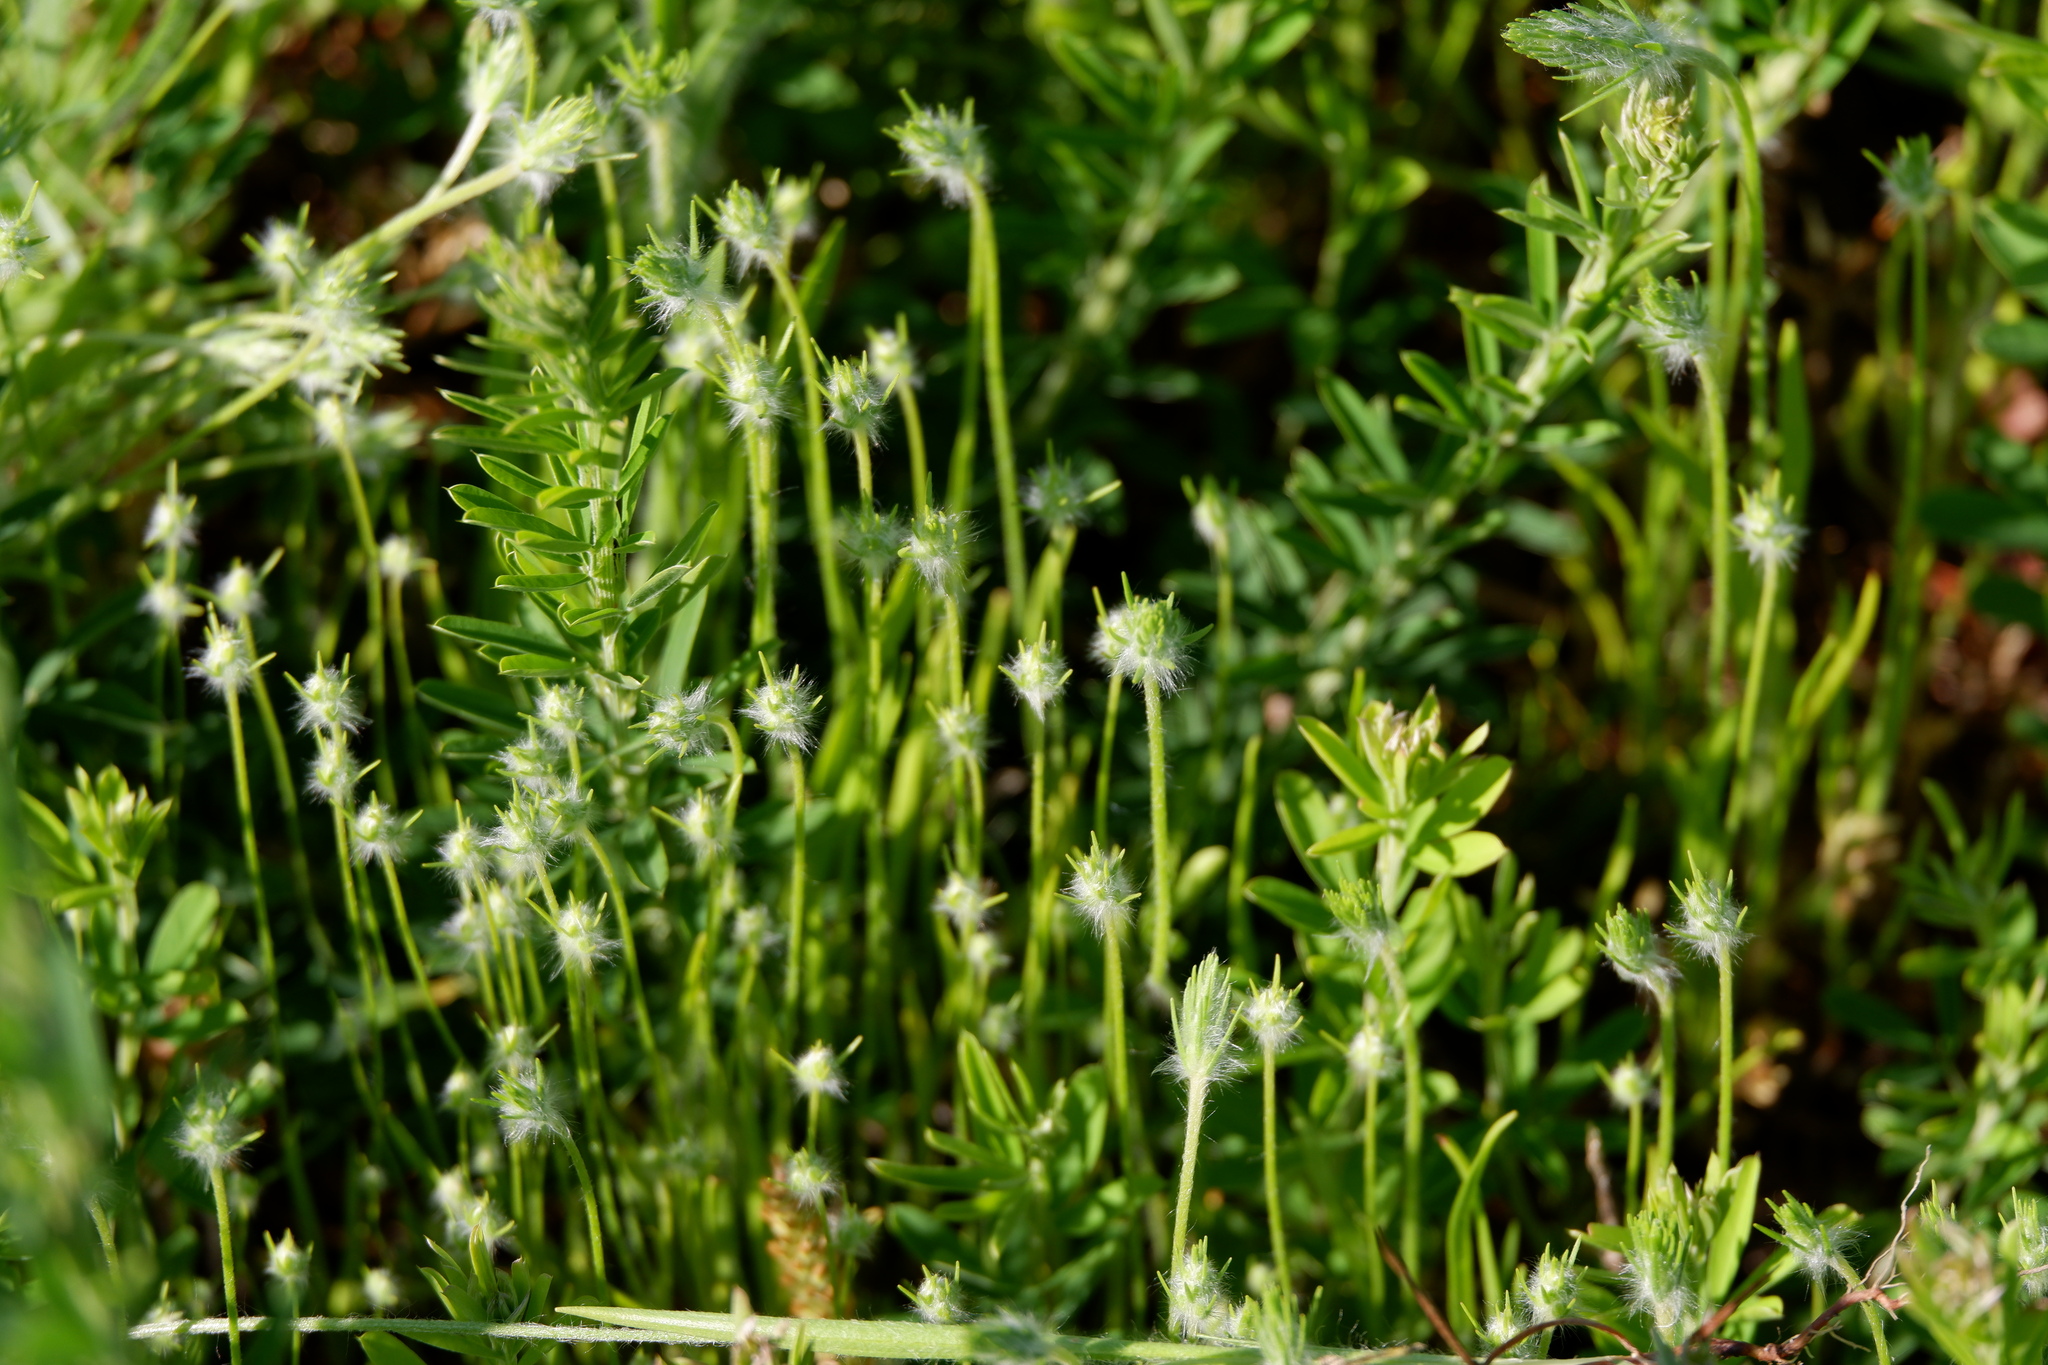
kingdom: Plantae
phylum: Tracheophyta
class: Magnoliopsida
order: Lamiales
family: Plantaginaceae
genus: Plantago
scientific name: Plantago aristata
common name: Bracted plantain
